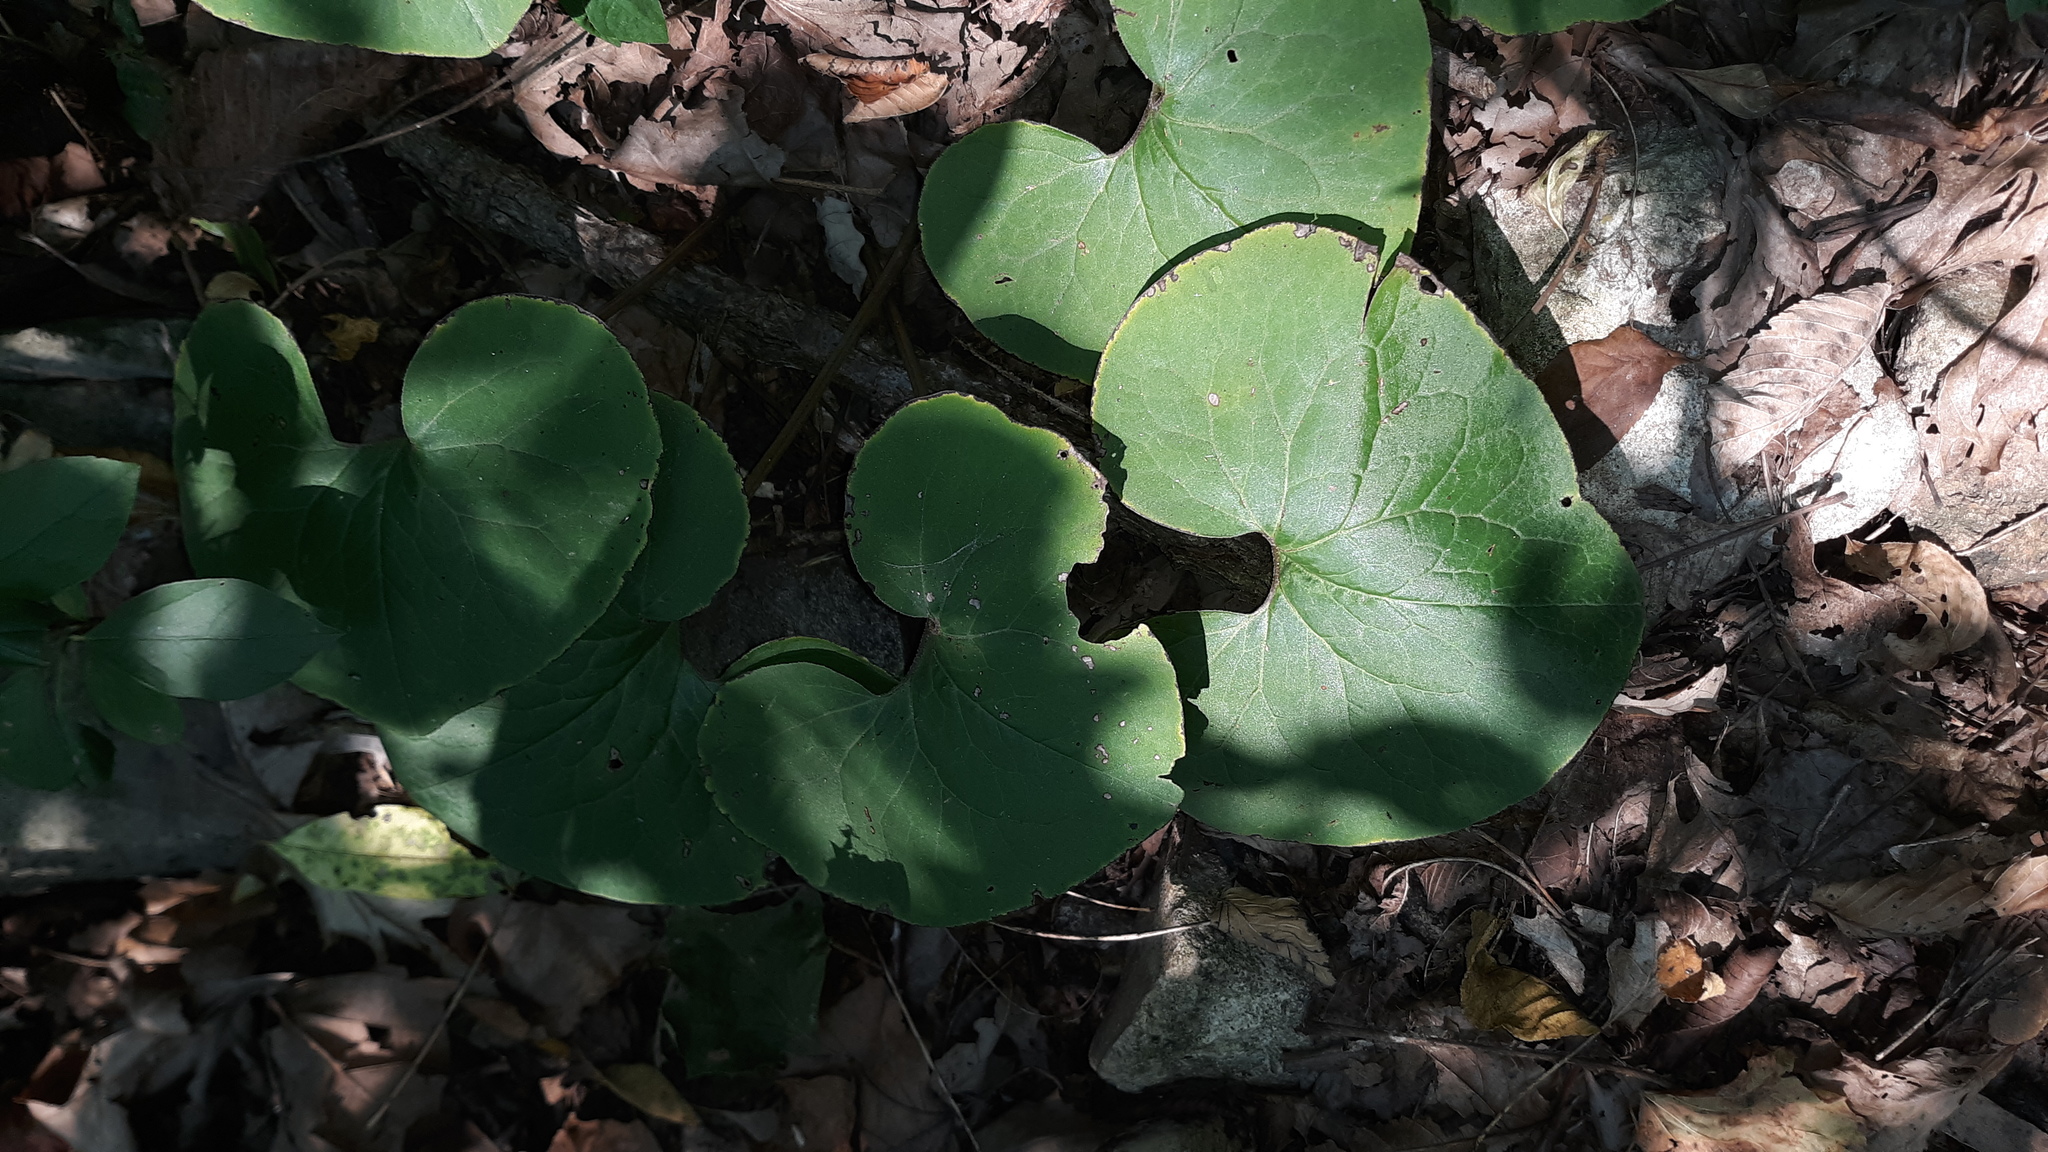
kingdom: Plantae
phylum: Tracheophyta
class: Magnoliopsida
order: Piperales
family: Aristolochiaceae
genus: Asarum
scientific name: Asarum canadense
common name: Wild ginger
